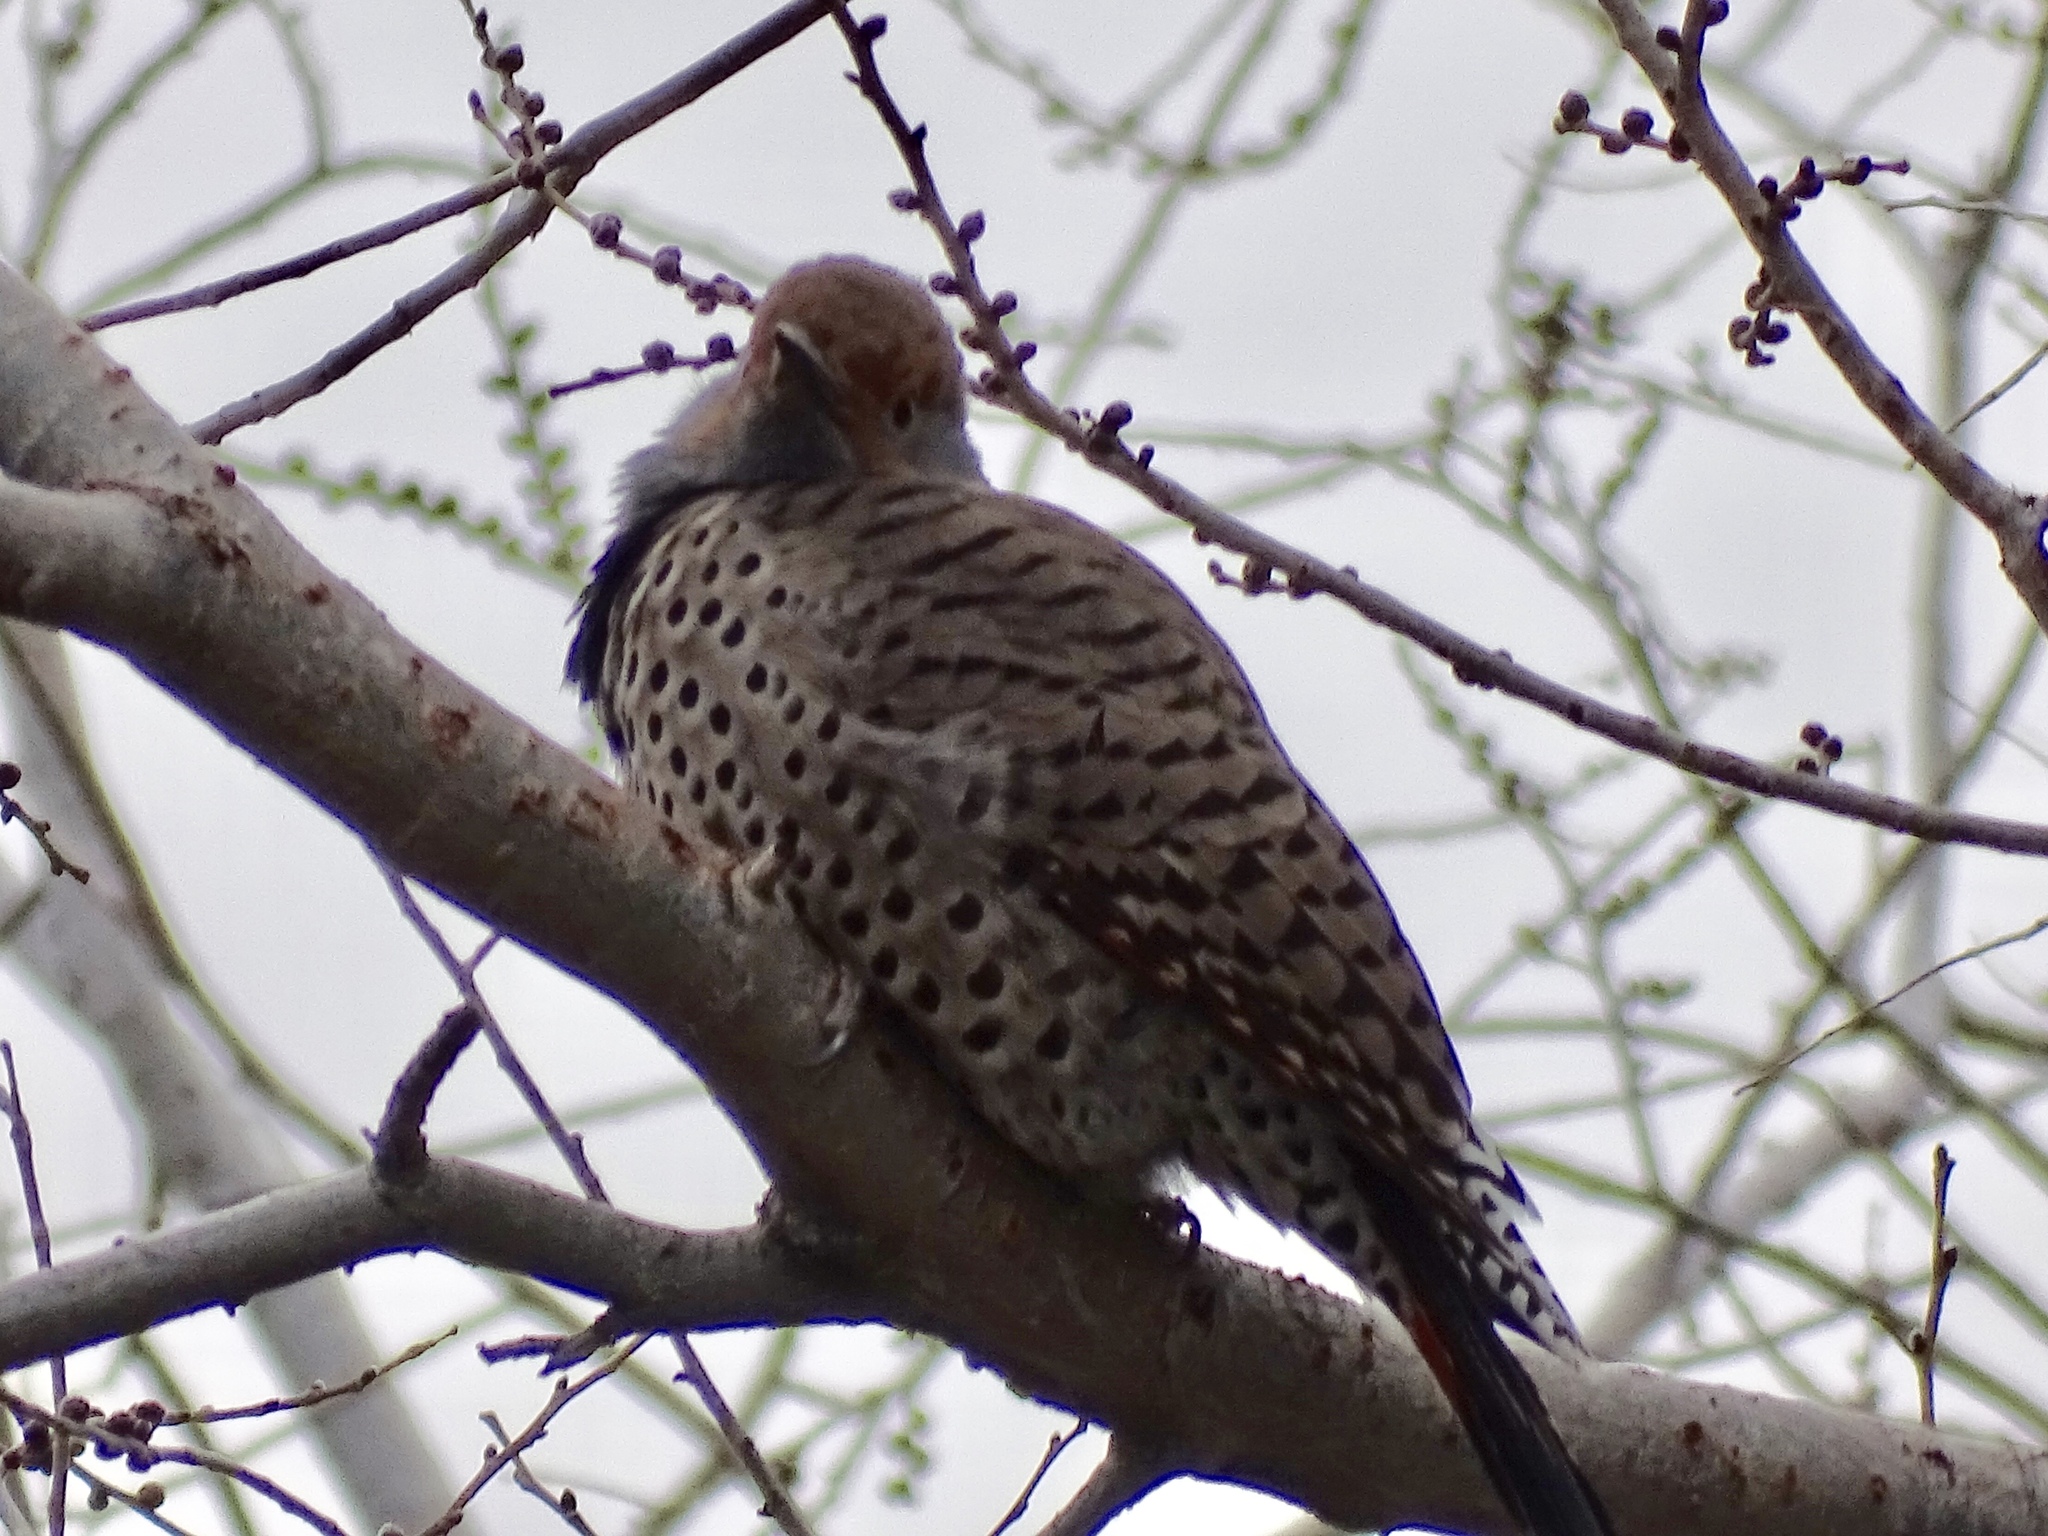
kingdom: Animalia
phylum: Chordata
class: Aves
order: Piciformes
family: Picidae
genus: Colaptes
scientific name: Colaptes auratus
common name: Northern flicker
